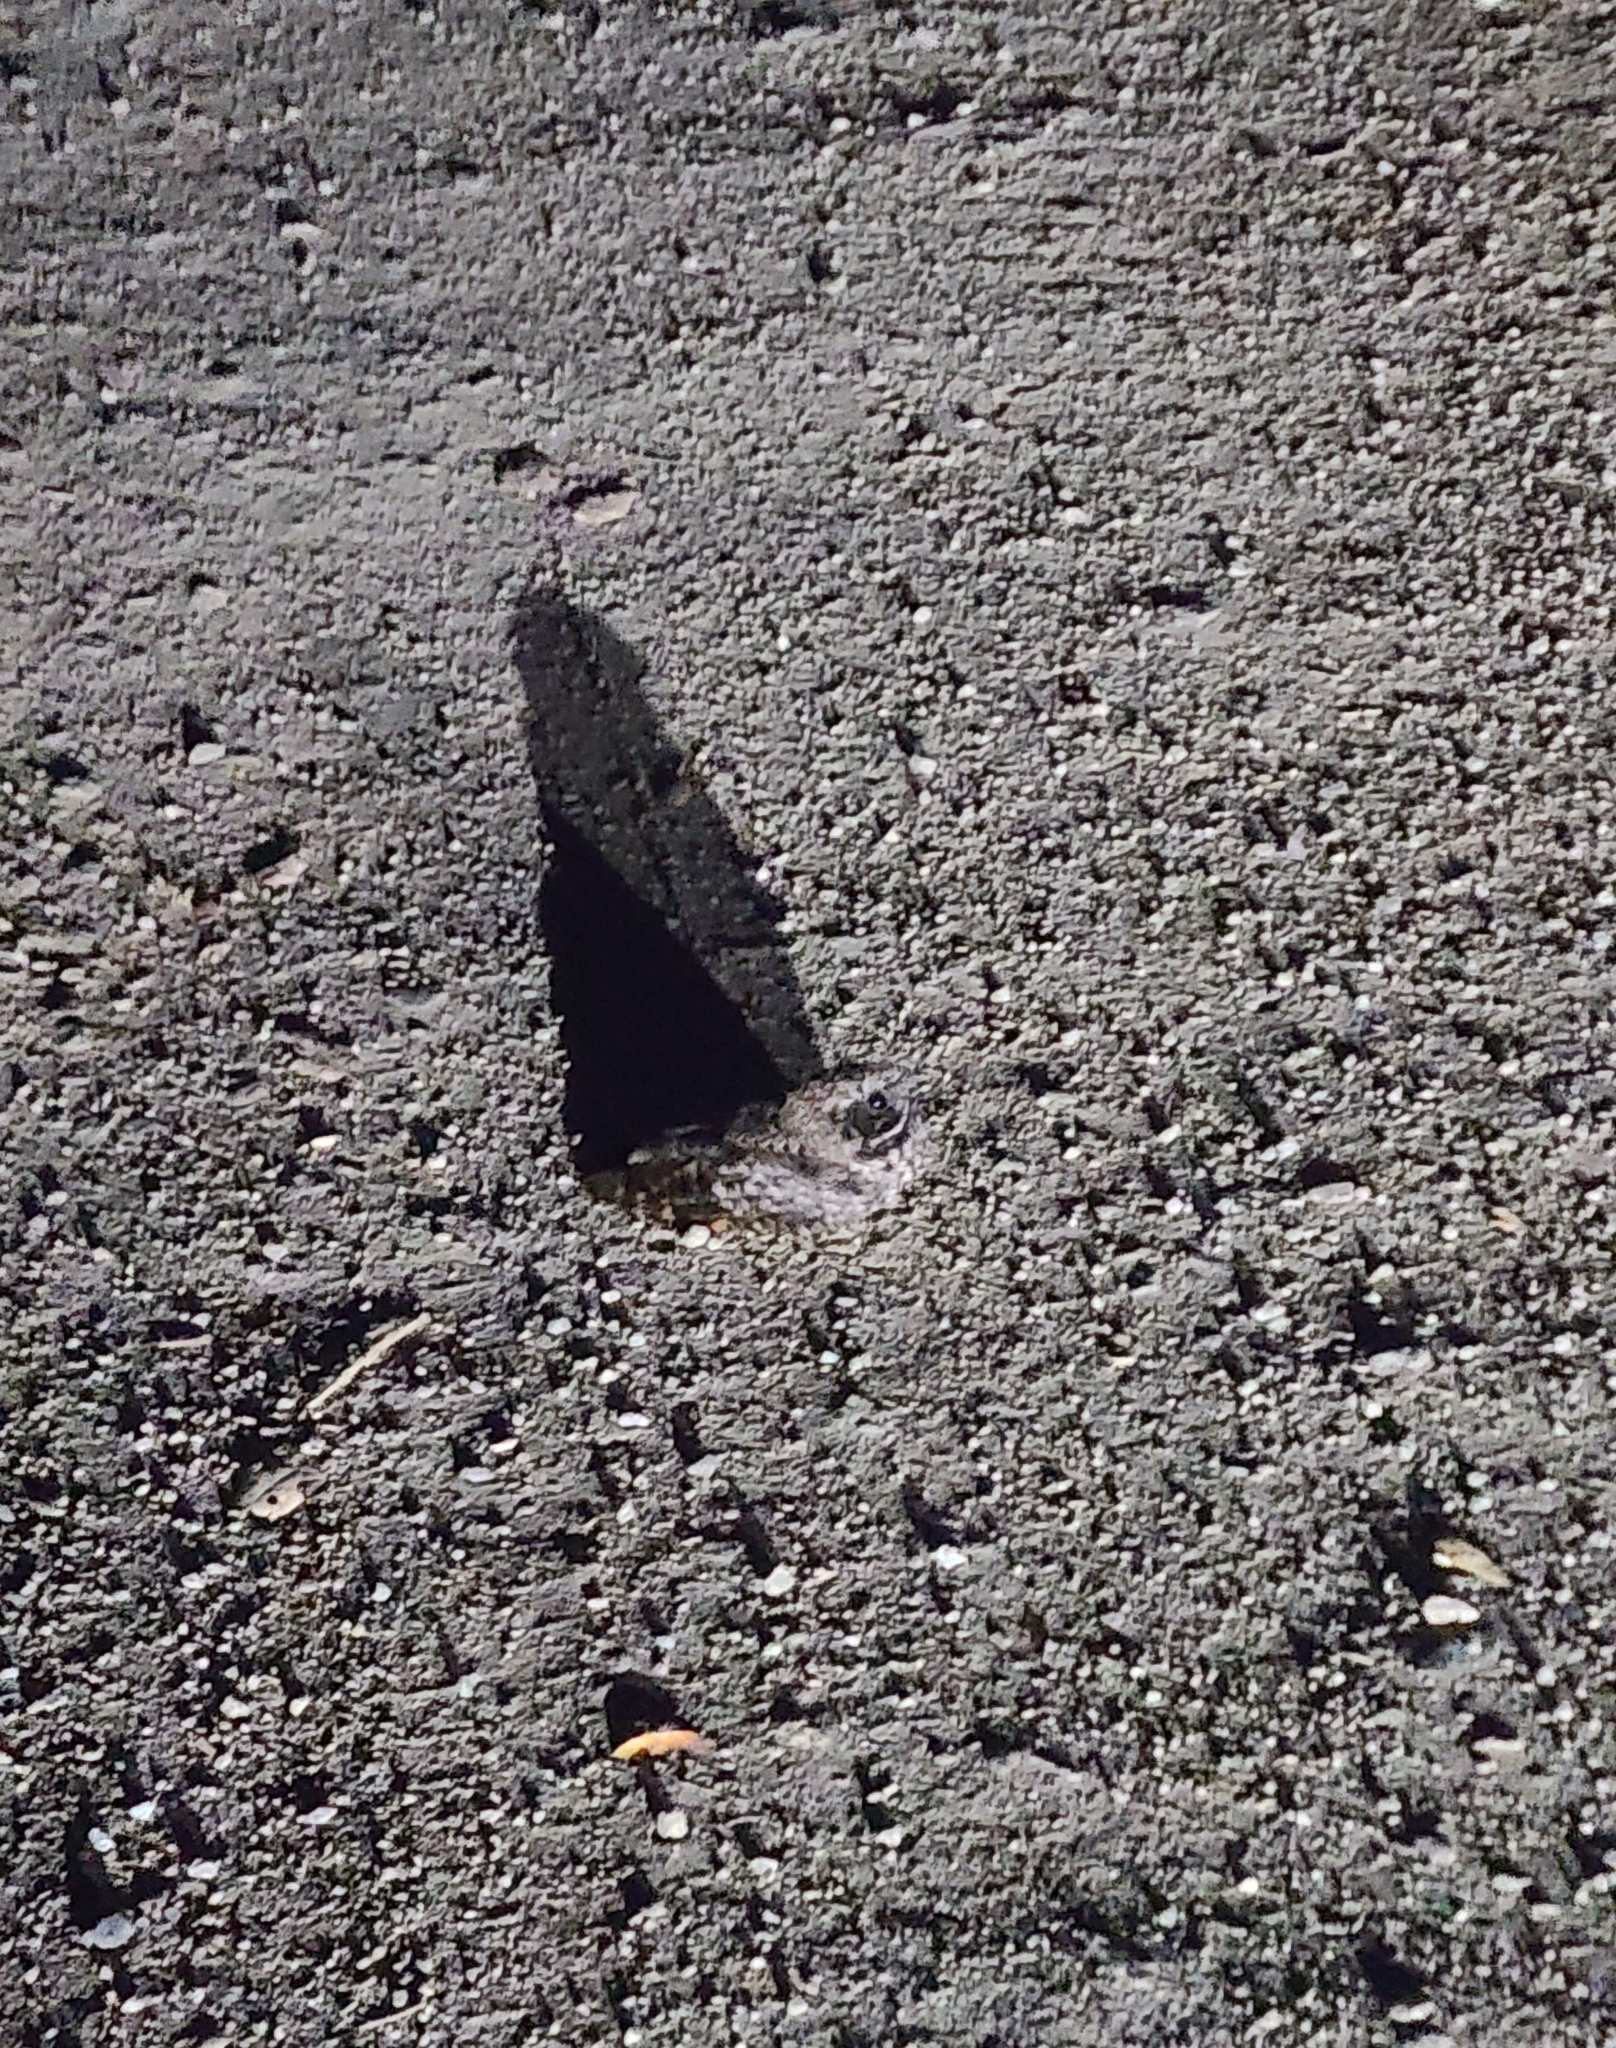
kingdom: Animalia
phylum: Chordata
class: Aves
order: Caprimulgiformes
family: Caprimulgidae
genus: Phalaenoptilus
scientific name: Phalaenoptilus nuttallii
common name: Common poorwill
